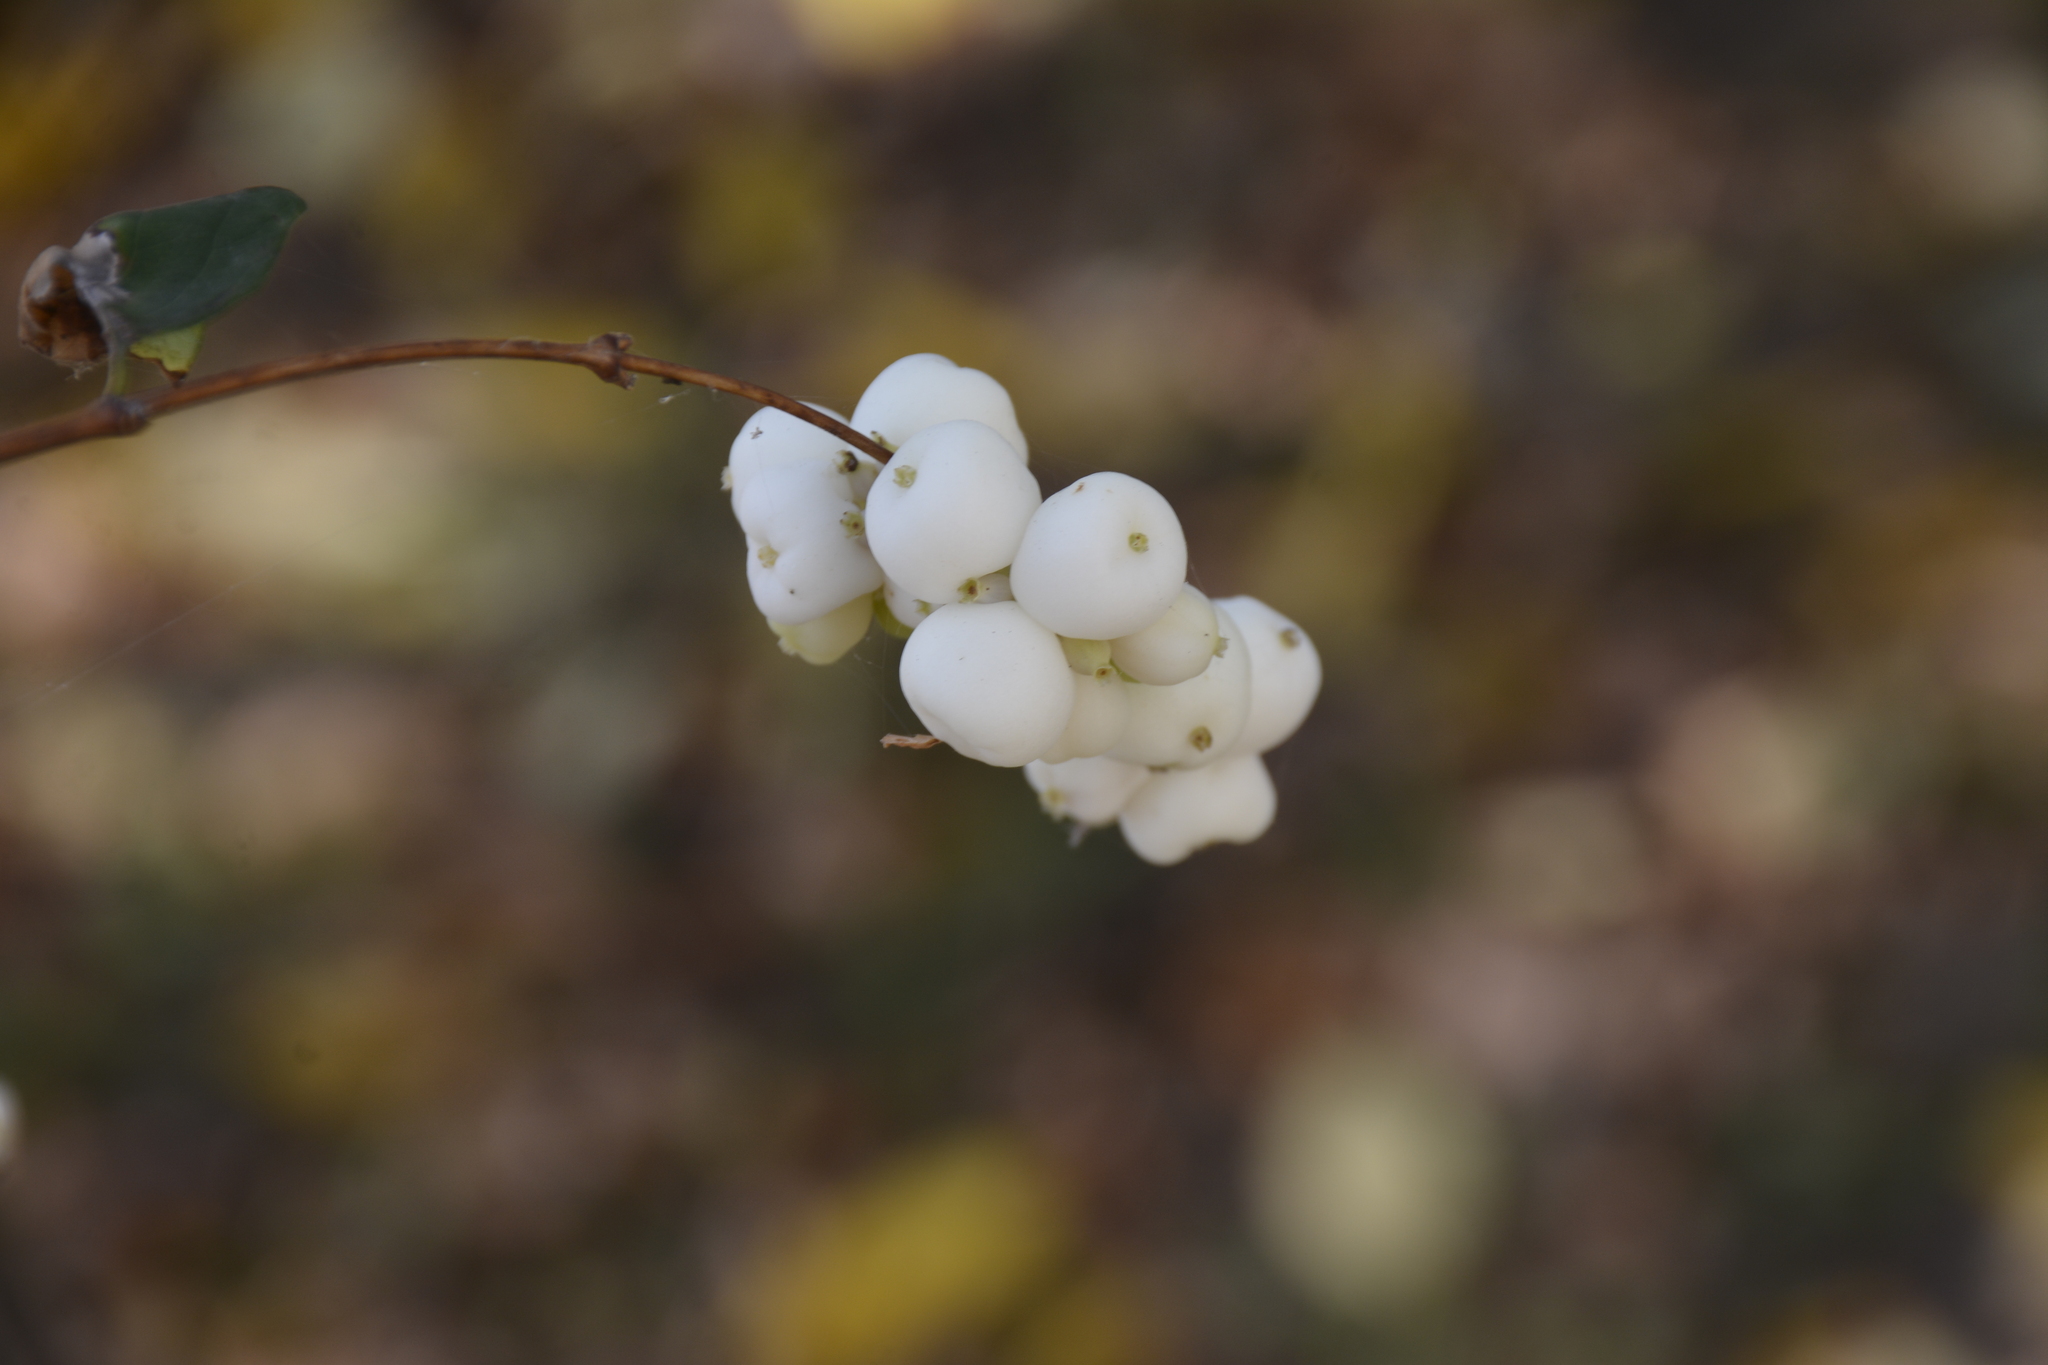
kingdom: Plantae
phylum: Tracheophyta
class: Magnoliopsida
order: Dipsacales
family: Caprifoliaceae
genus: Symphoricarpos
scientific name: Symphoricarpos albus
